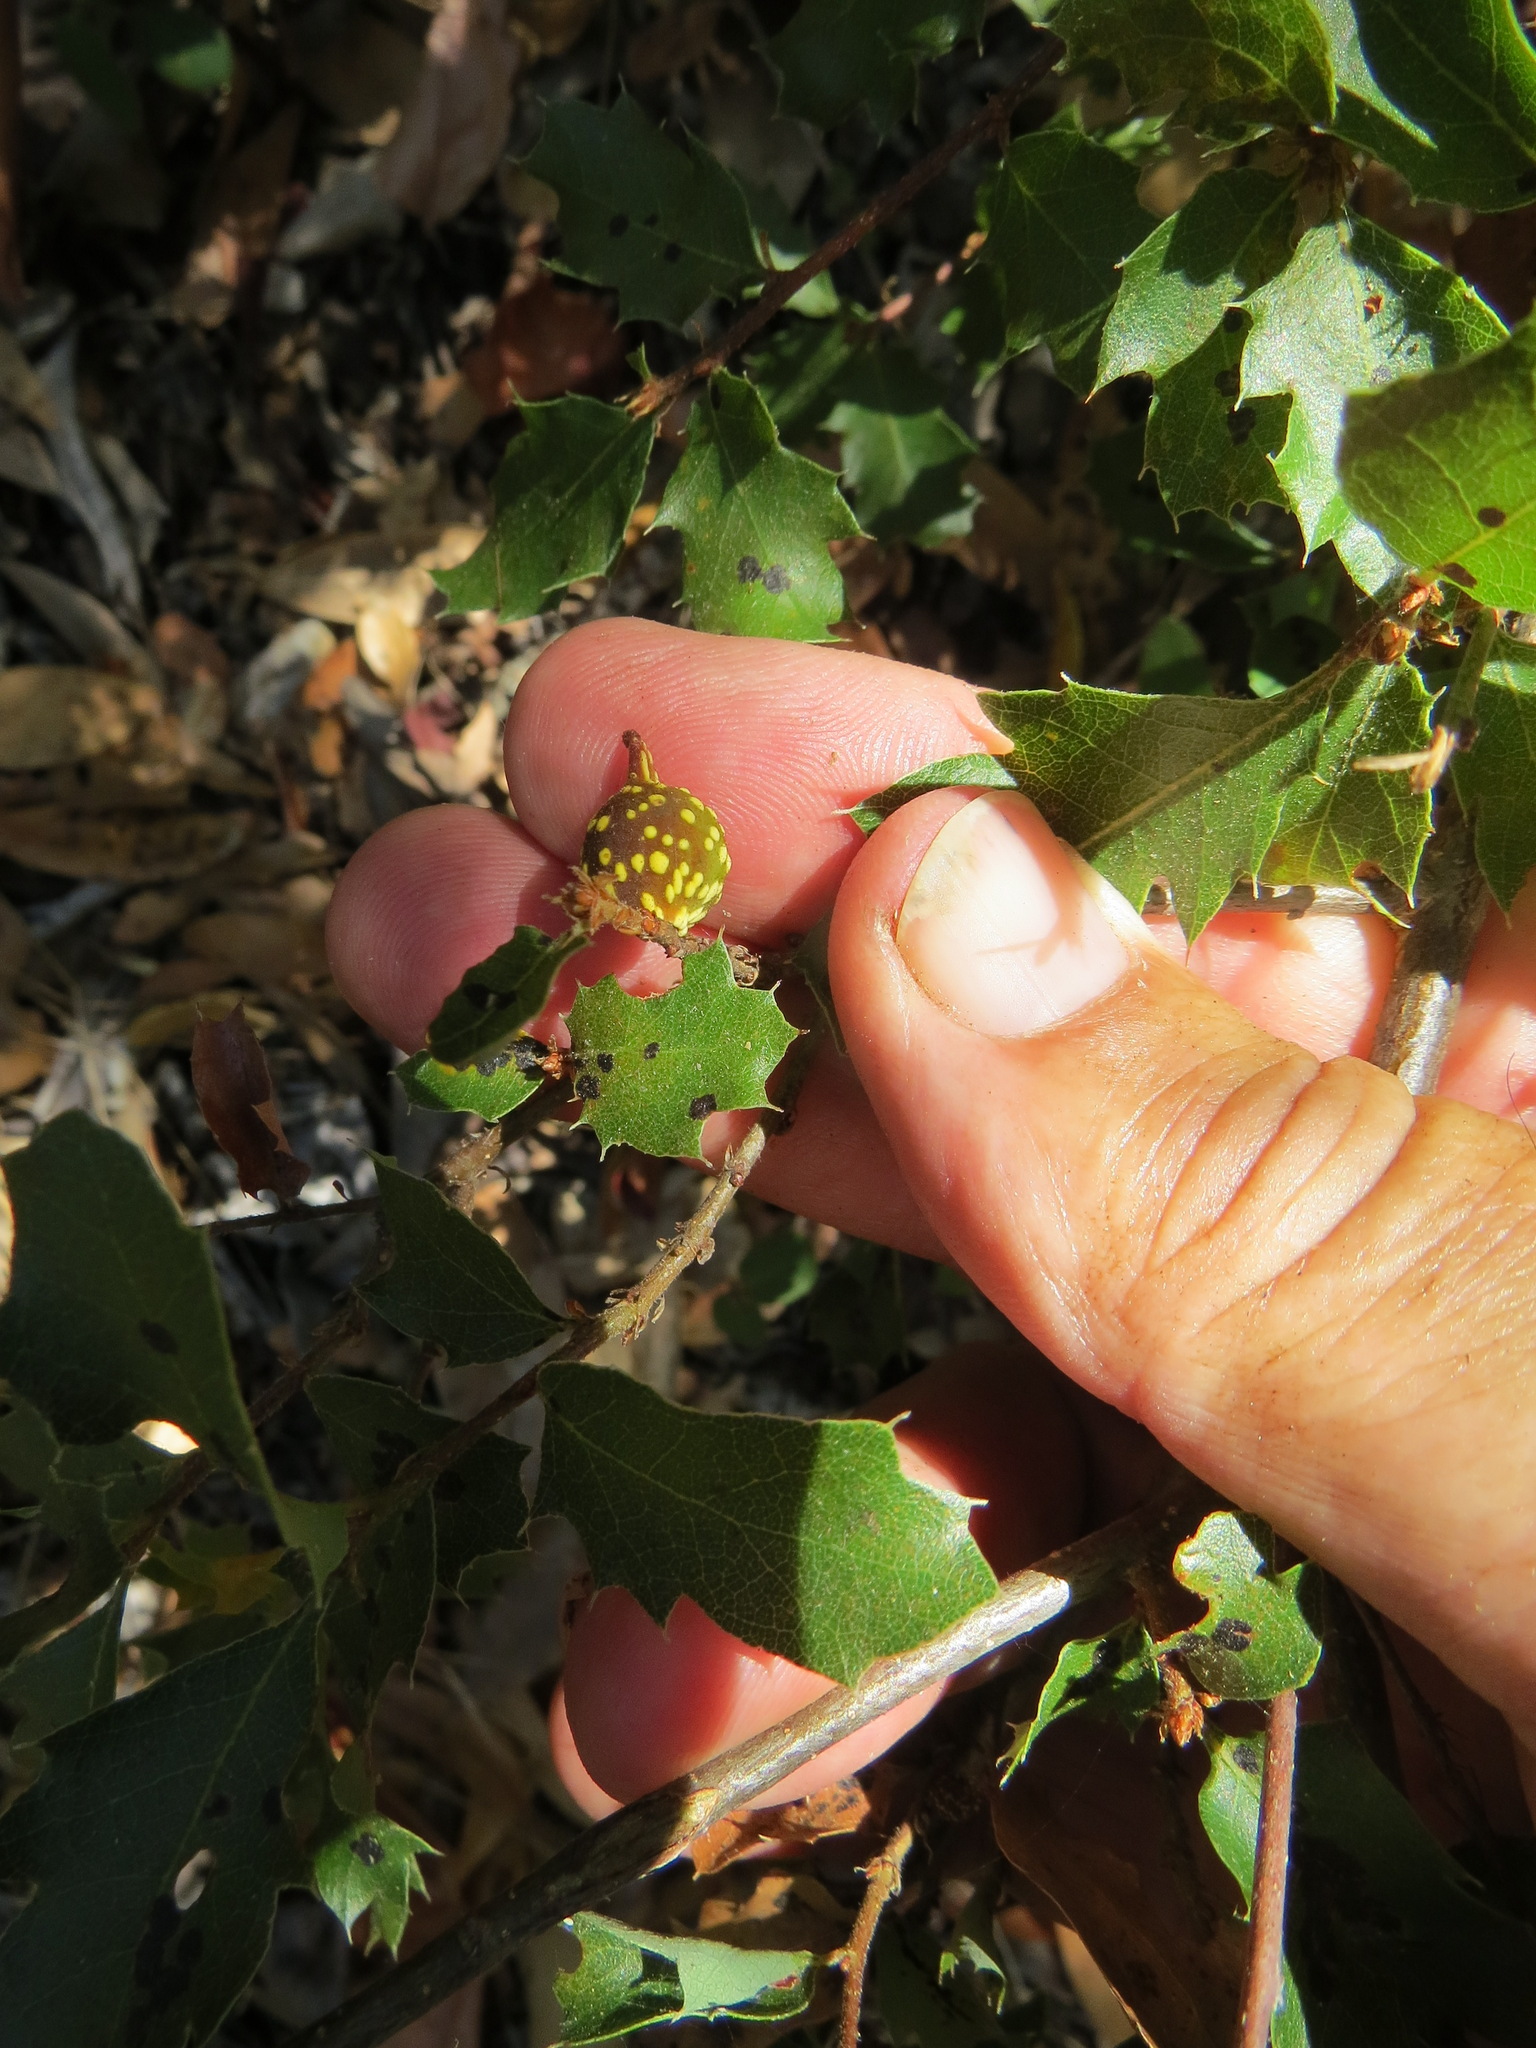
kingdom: Animalia
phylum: Arthropoda
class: Insecta
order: Hymenoptera
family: Cynipidae
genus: Burnettweldia
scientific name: Burnettweldia
